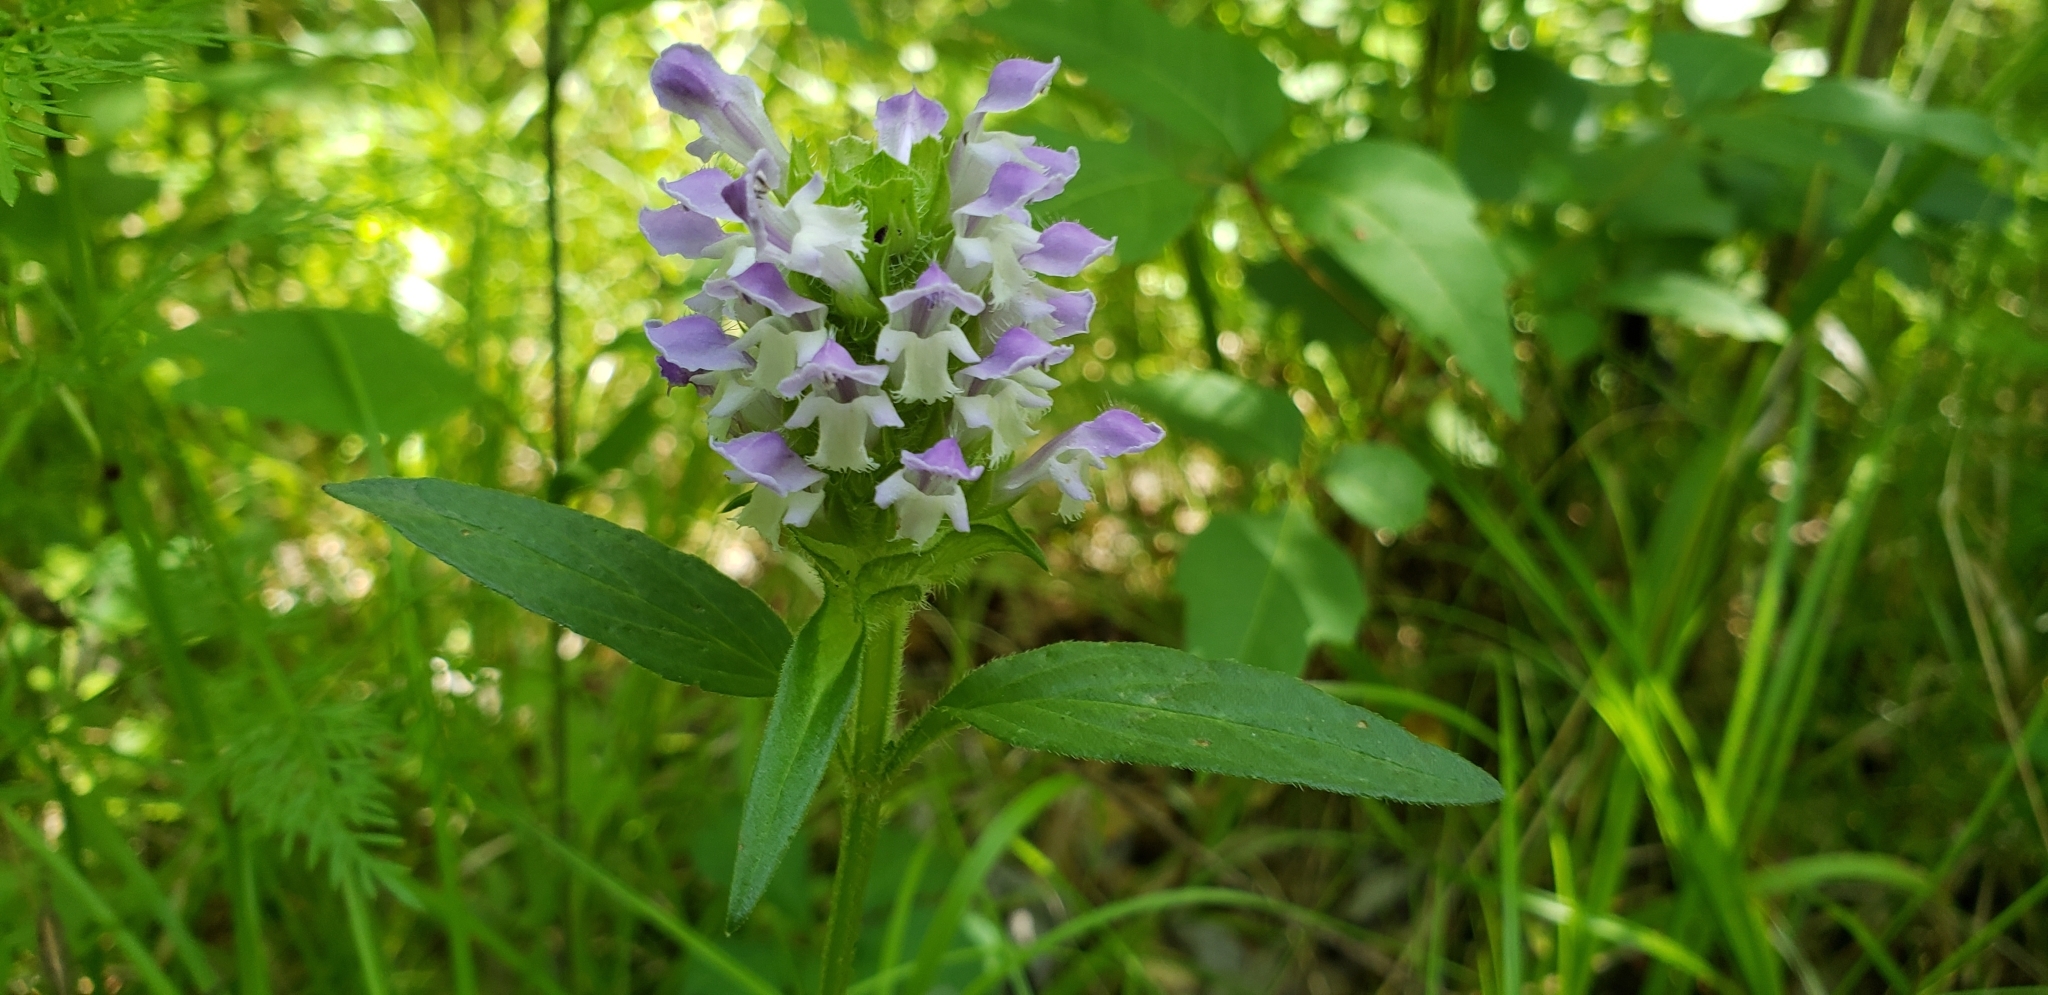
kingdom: Plantae
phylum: Tracheophyta
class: Magnoliopsida
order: Lamiales
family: Lamiaceae
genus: Prunella
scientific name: Prunella vulgaris
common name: Heal-all
